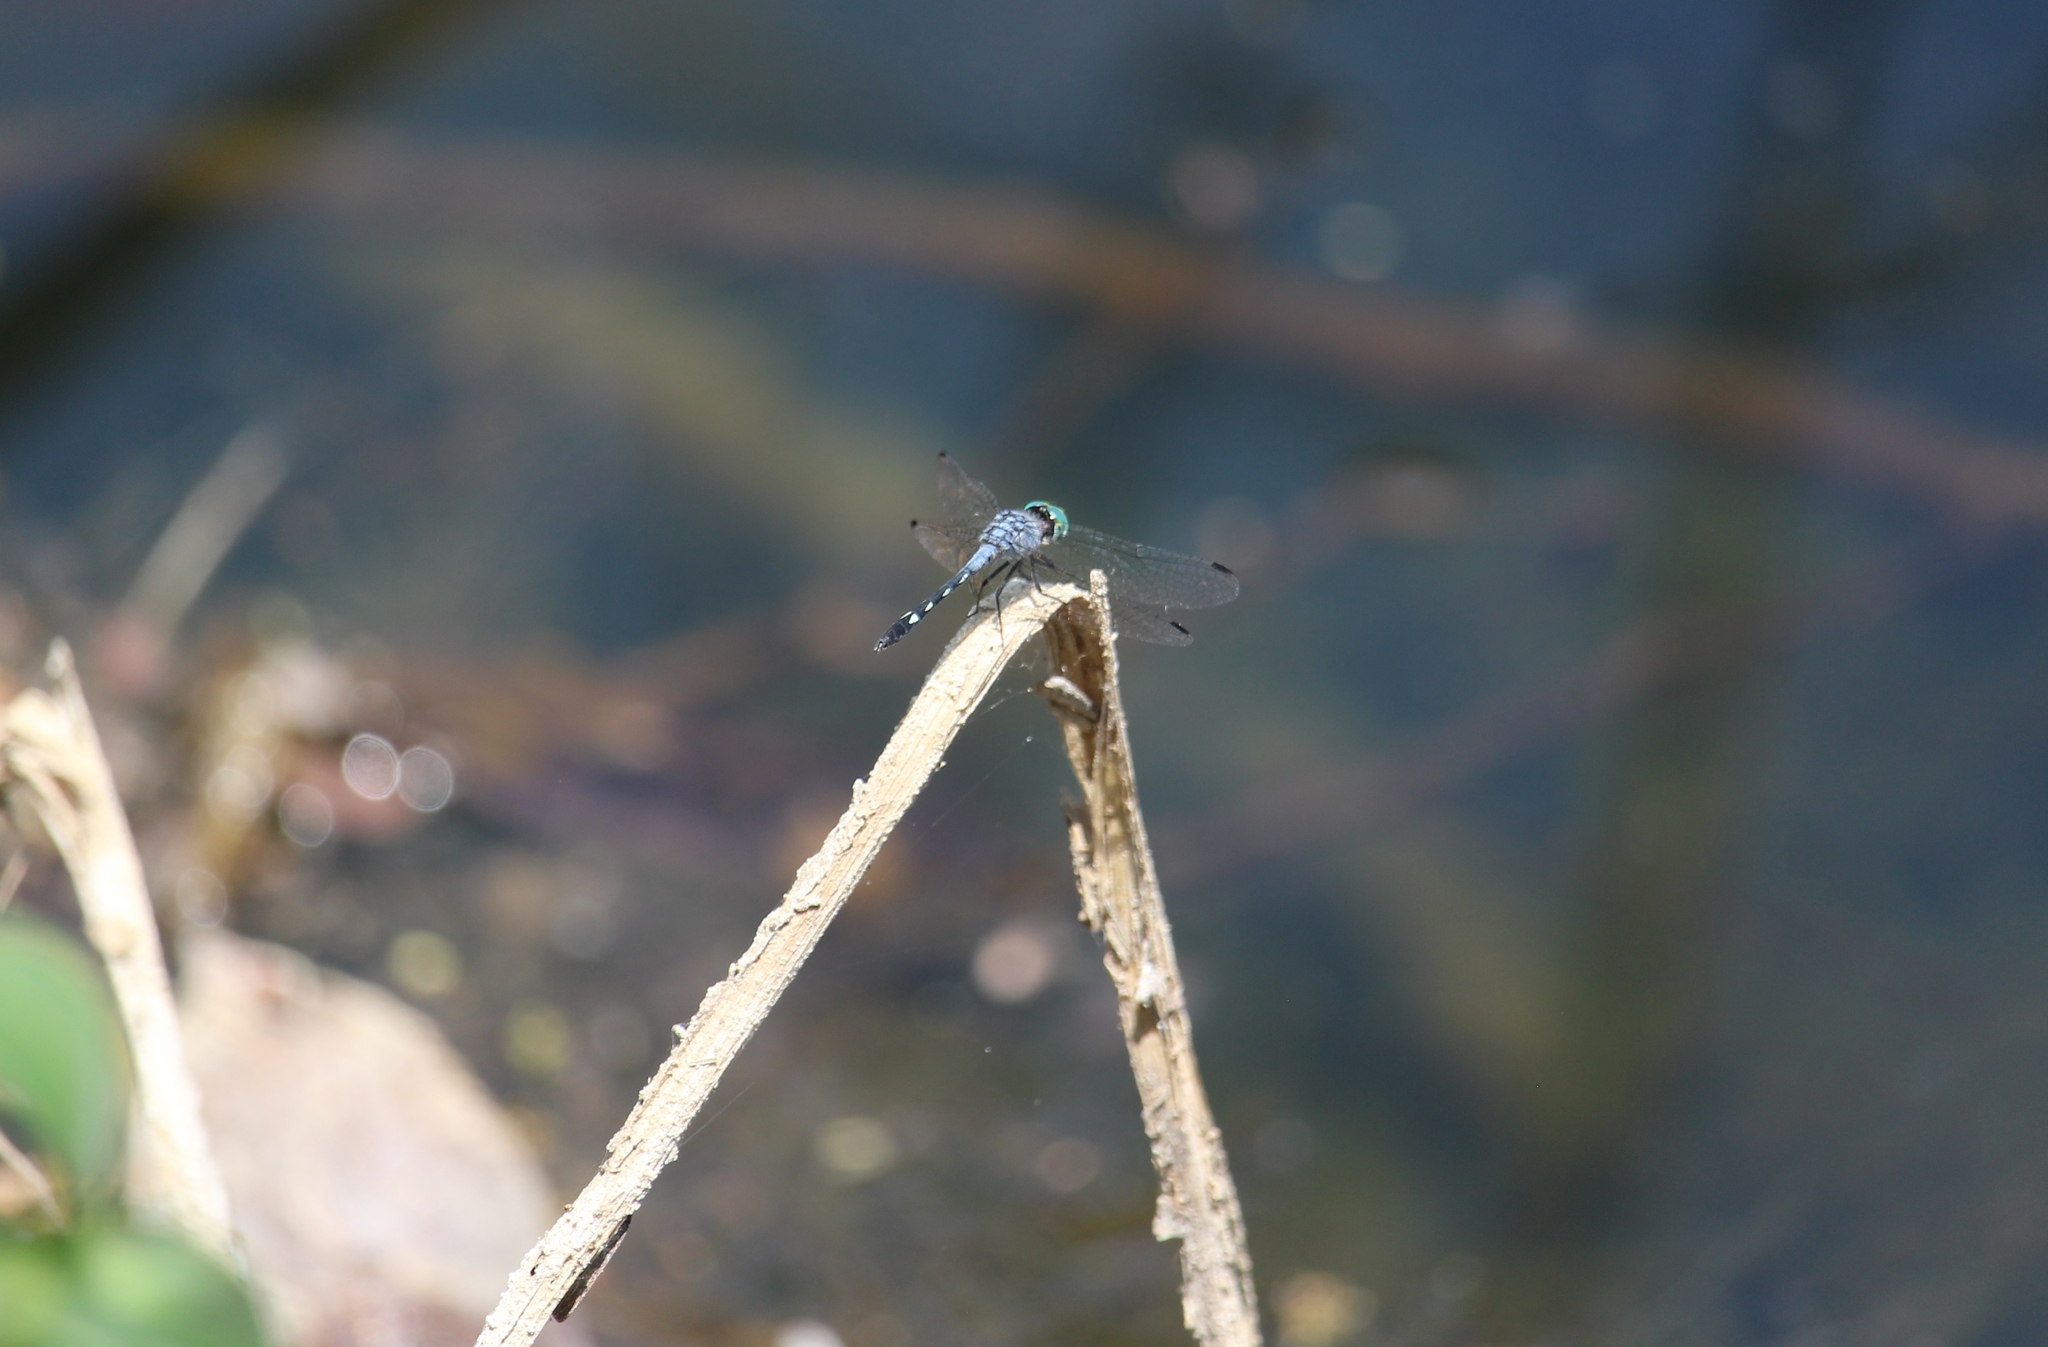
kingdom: Animalia
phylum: Arthropoda
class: Insecta
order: Odonata
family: Libellulidae
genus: Micrathyria
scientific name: Micrathyria debilis
